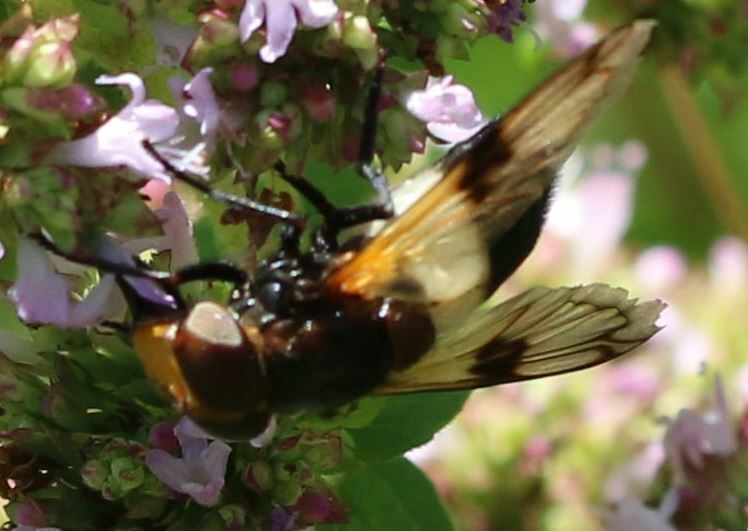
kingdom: Animalia
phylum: Arthropoda
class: Insecta
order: Diptera
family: Syrphidae
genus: Volucella
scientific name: Volucella pellucens
